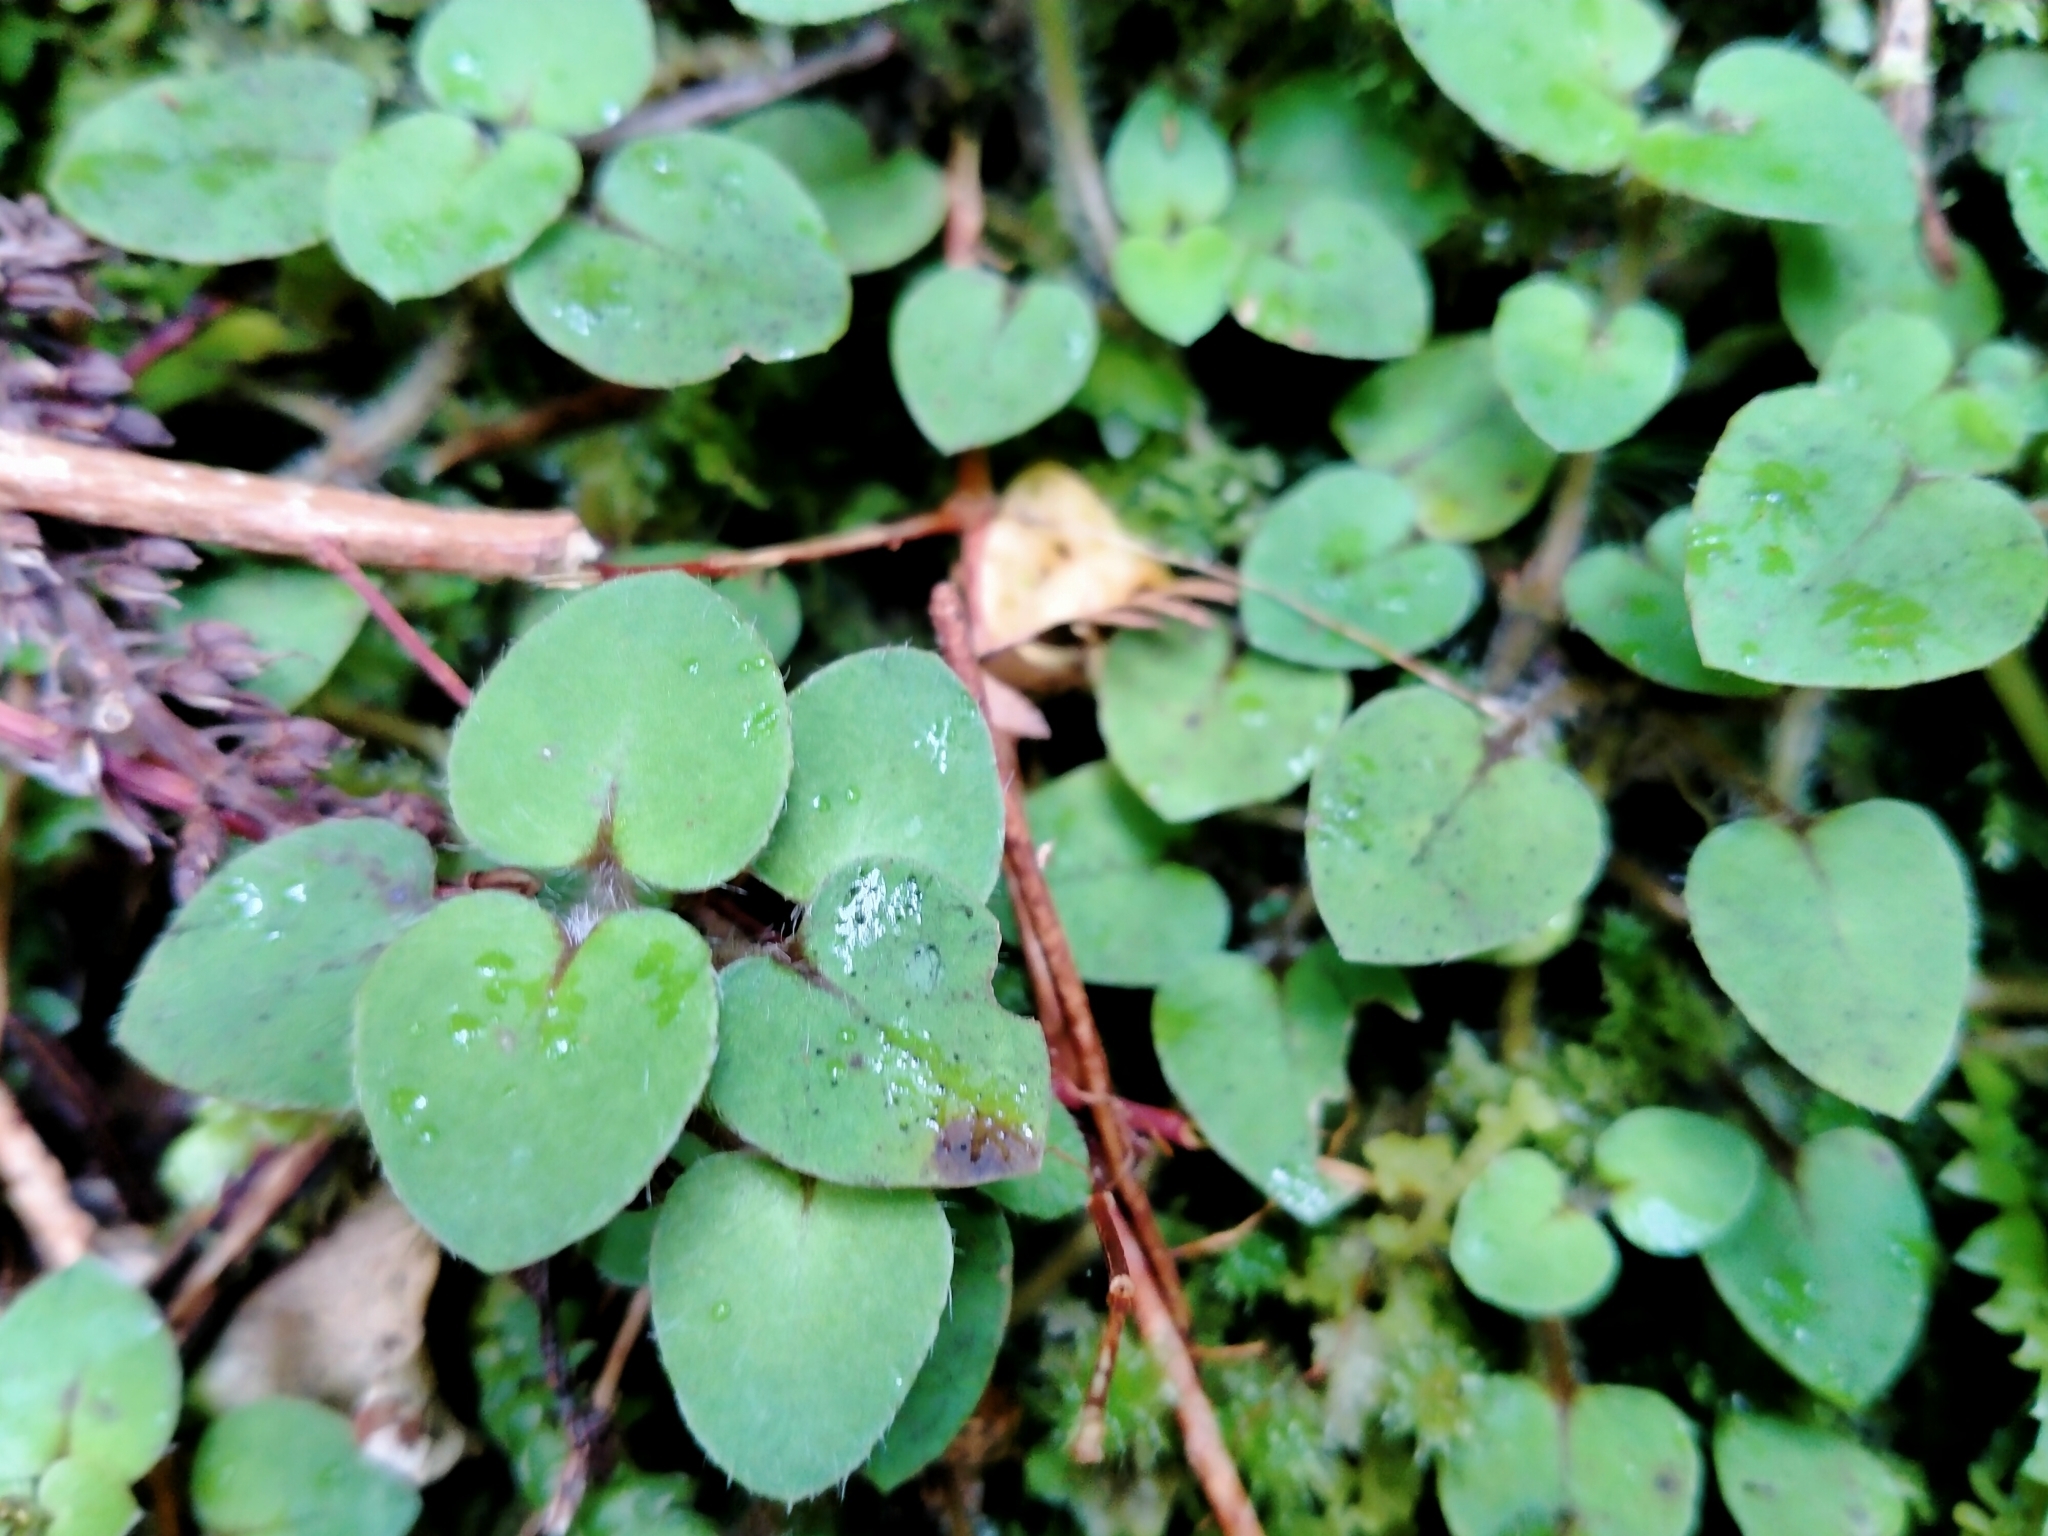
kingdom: Plantae
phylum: Tracheophyta
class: Magnoliopsida
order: Gentianales
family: Rubiaceae
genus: Nertera
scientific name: Nertera villosa
